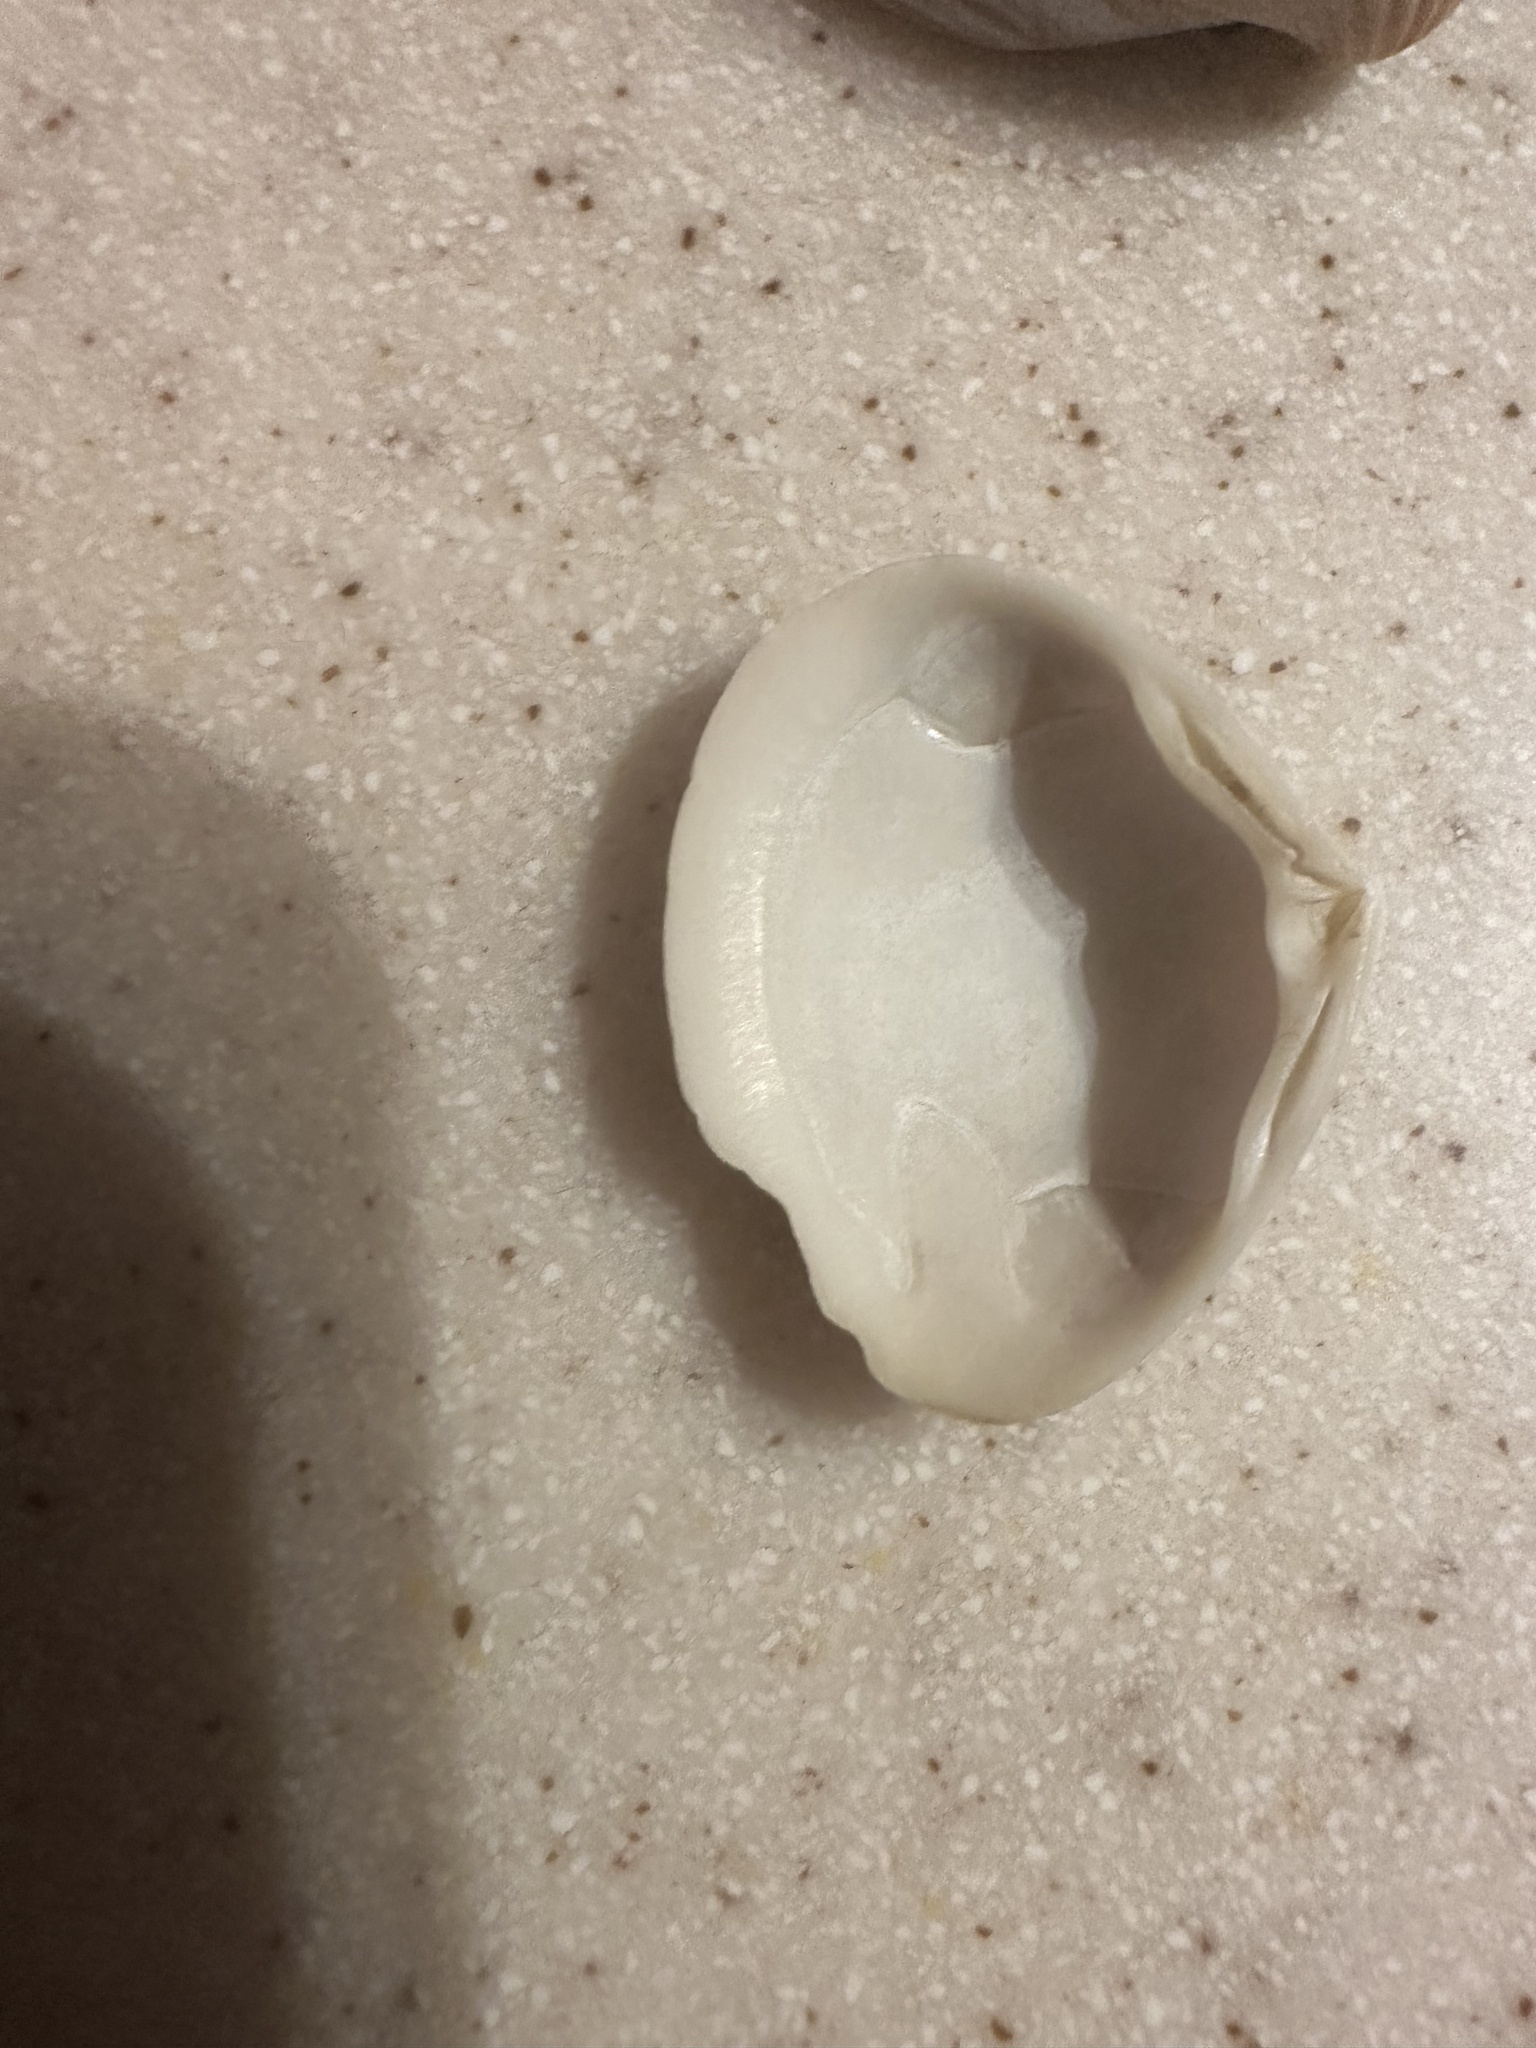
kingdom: Animalia
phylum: Mollusca
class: Bivalvia
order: Venerida
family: Mactridae
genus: Spisula
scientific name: Spisula solida
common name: Thick trough shell
